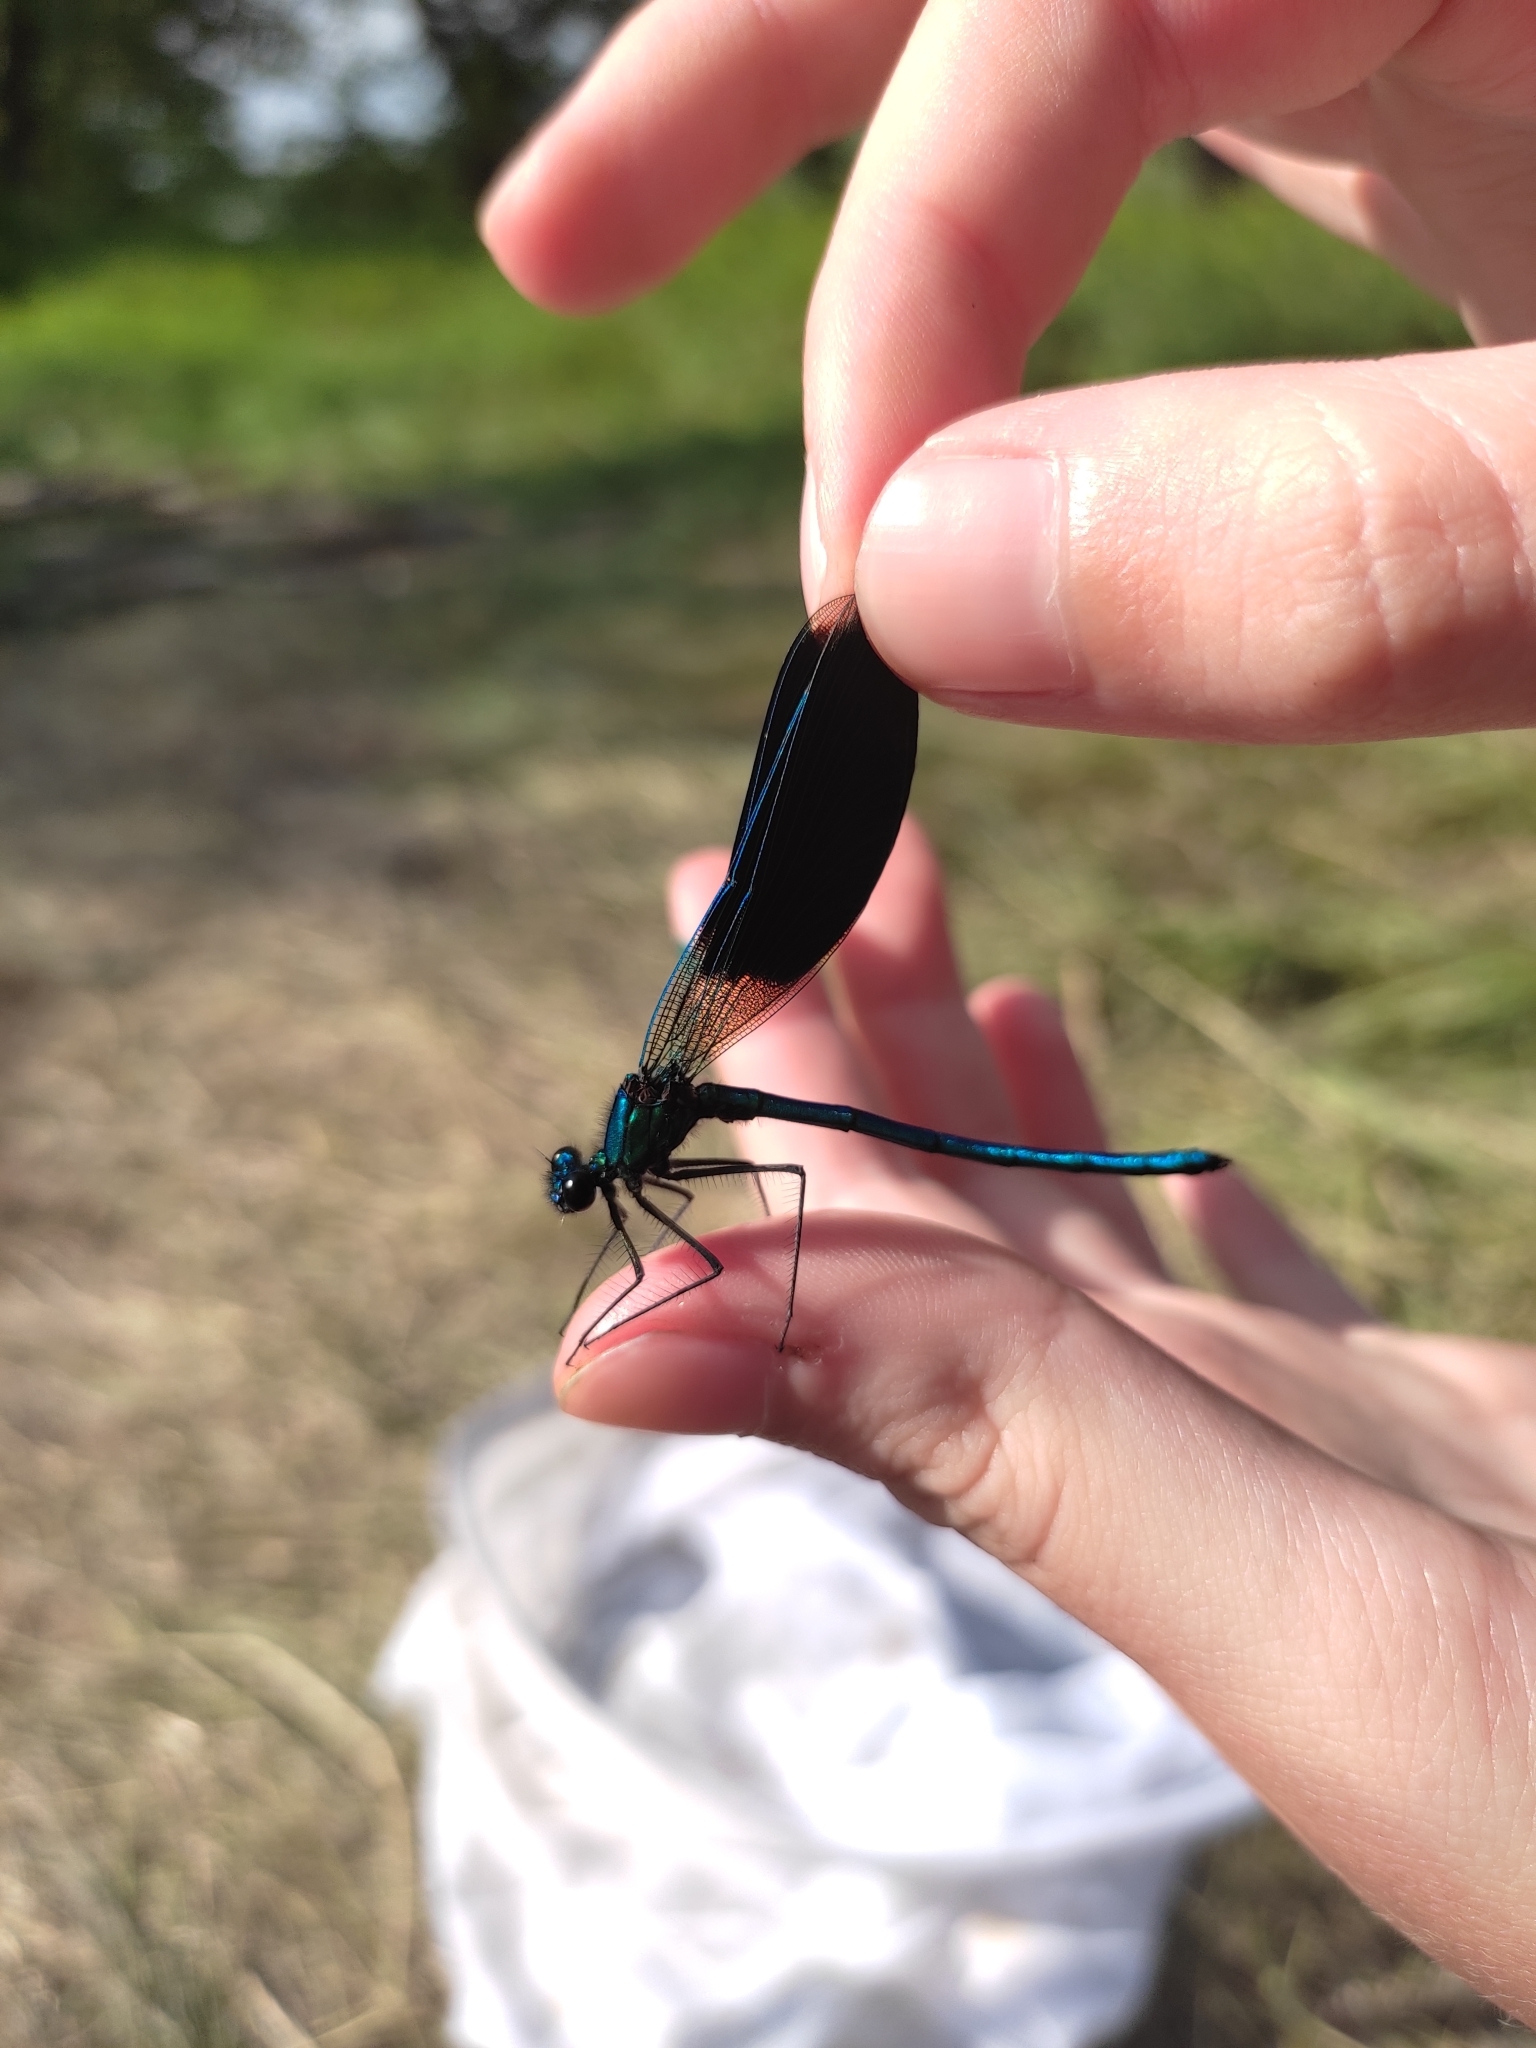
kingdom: Animalia
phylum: Arthropoda
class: Insecta
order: Odonata
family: Calopterygidae
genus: Calopteryx
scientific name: Calopteryx splendens
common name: Banded demoiselle
